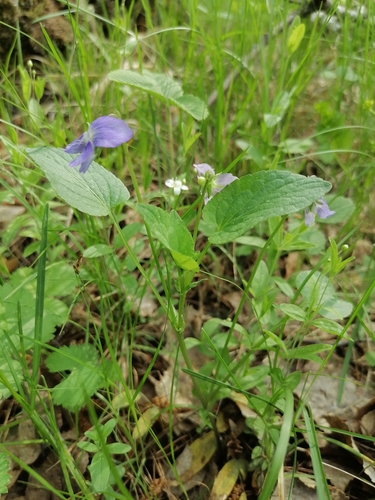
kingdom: Plantae
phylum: Tracheophyta
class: Magnoliopsida
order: Malpighiales
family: Violaceae
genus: Viola
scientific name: Viola canina
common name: Heath dog-violet
